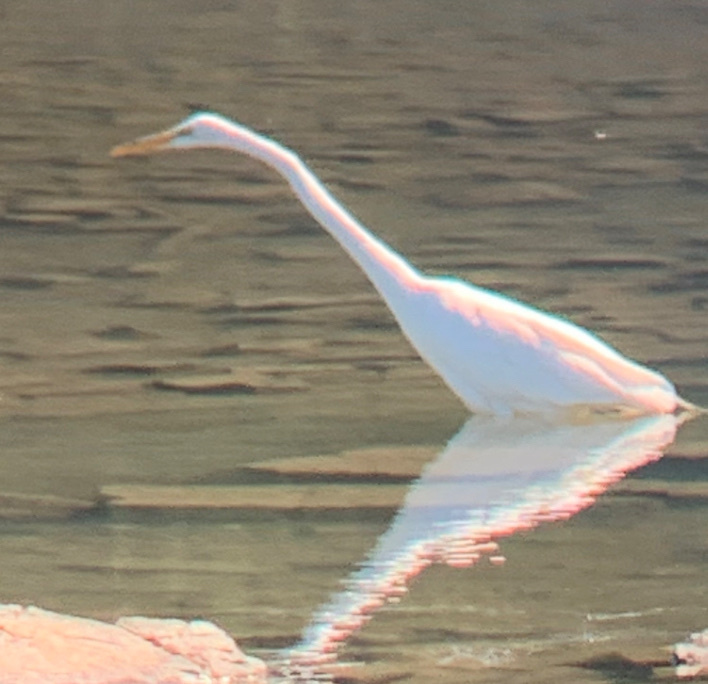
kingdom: Animalia
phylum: Chordata
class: Aves
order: Pelecaniformes
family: Ardeidae
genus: Ardea
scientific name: Ardea alba
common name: Great egret
